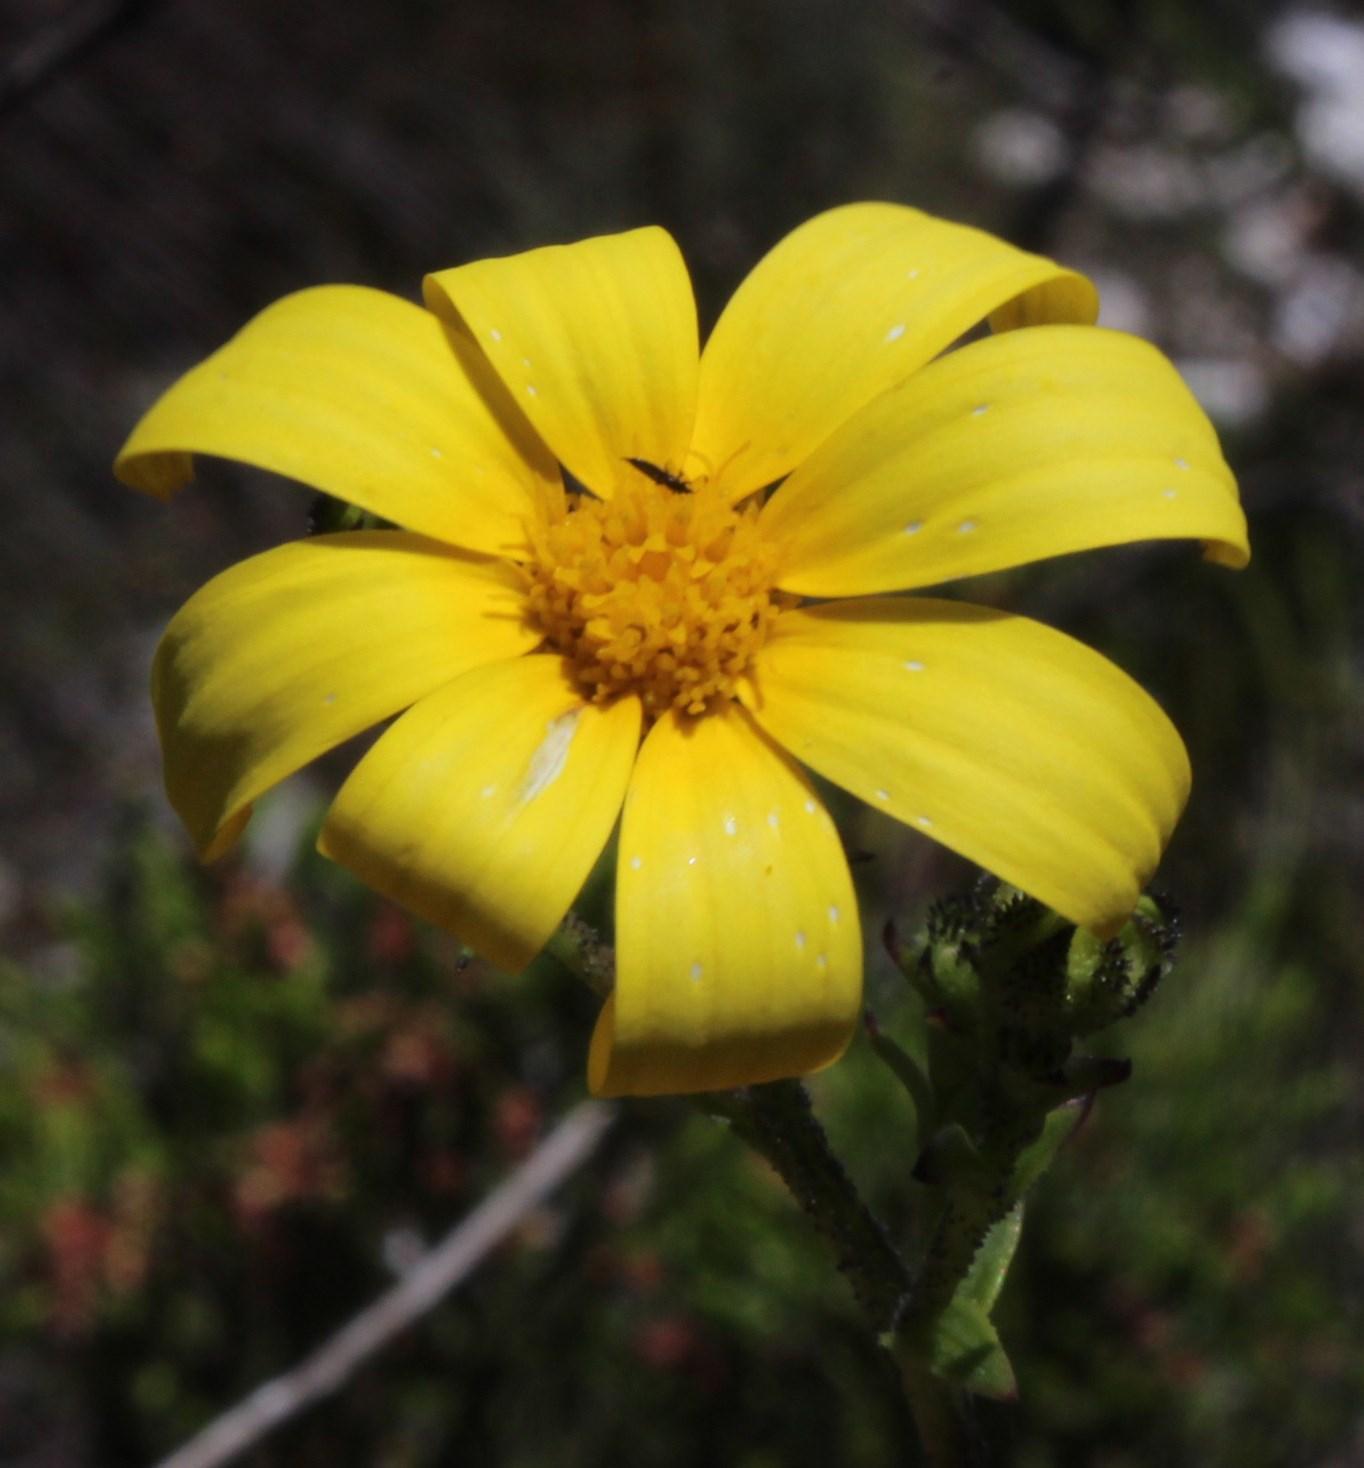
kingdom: Plantae
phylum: Tracheophyta
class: Magnoliopsida
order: Asterales
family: Asteraceae
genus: Osteospermum
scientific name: Osteospermum rotundifolium
